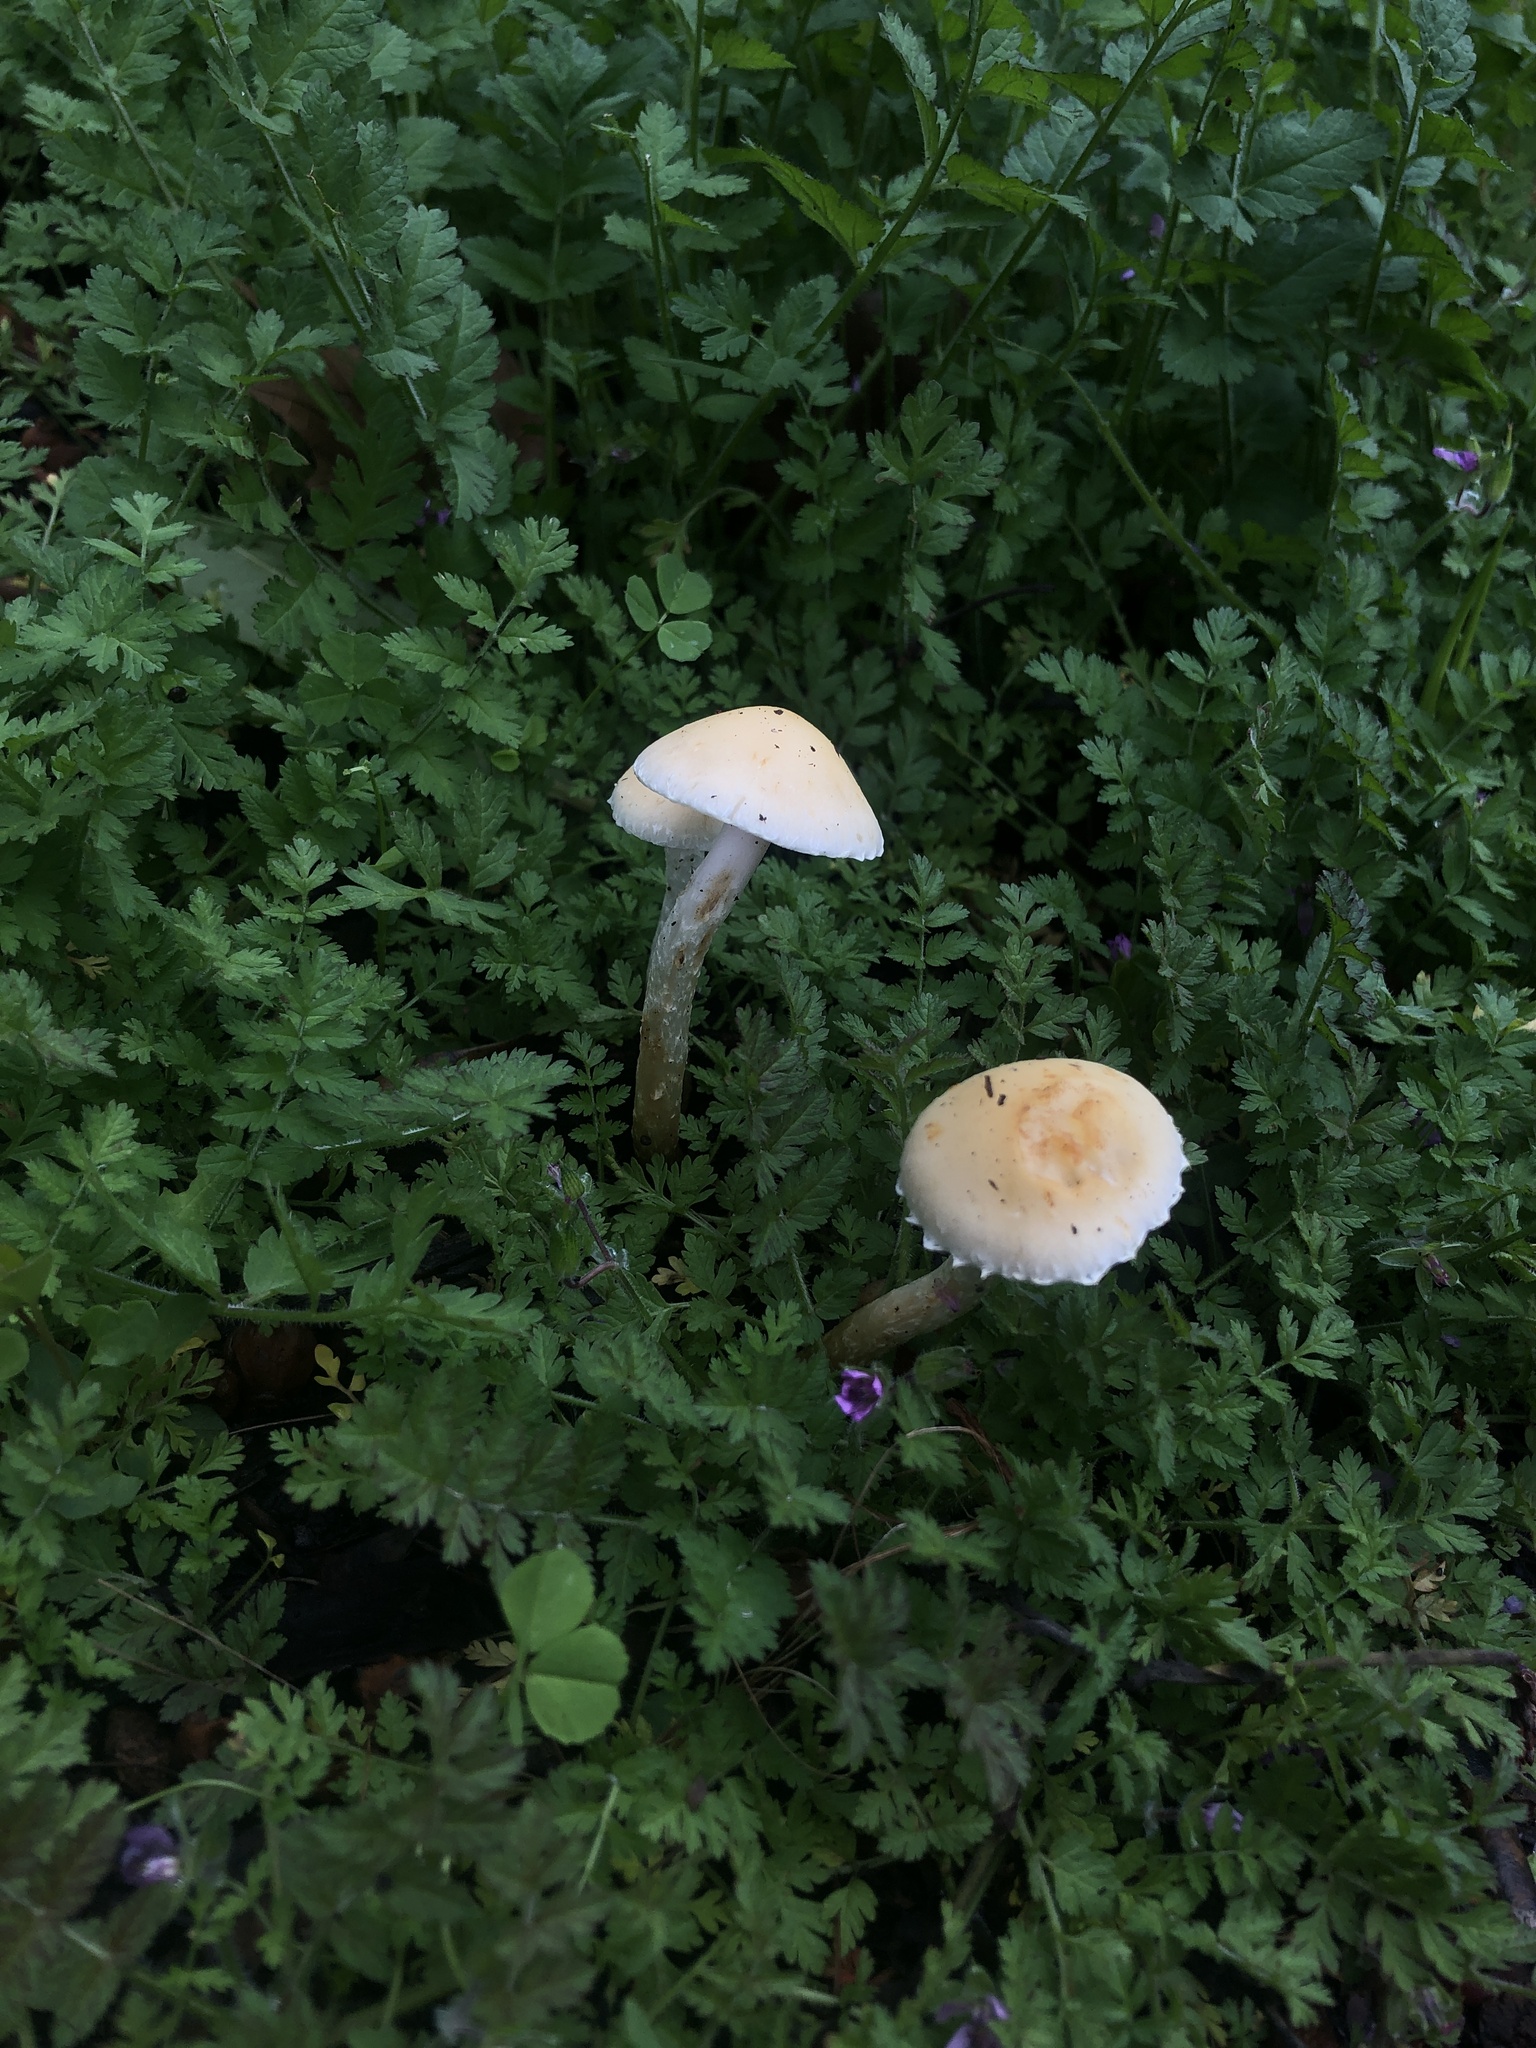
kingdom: Fungi
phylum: Basidiomycota
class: Agaricomycetes
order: Agaricales
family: Strophariaceae
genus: Leratiomyces
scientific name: Leratiomyces percevalii
